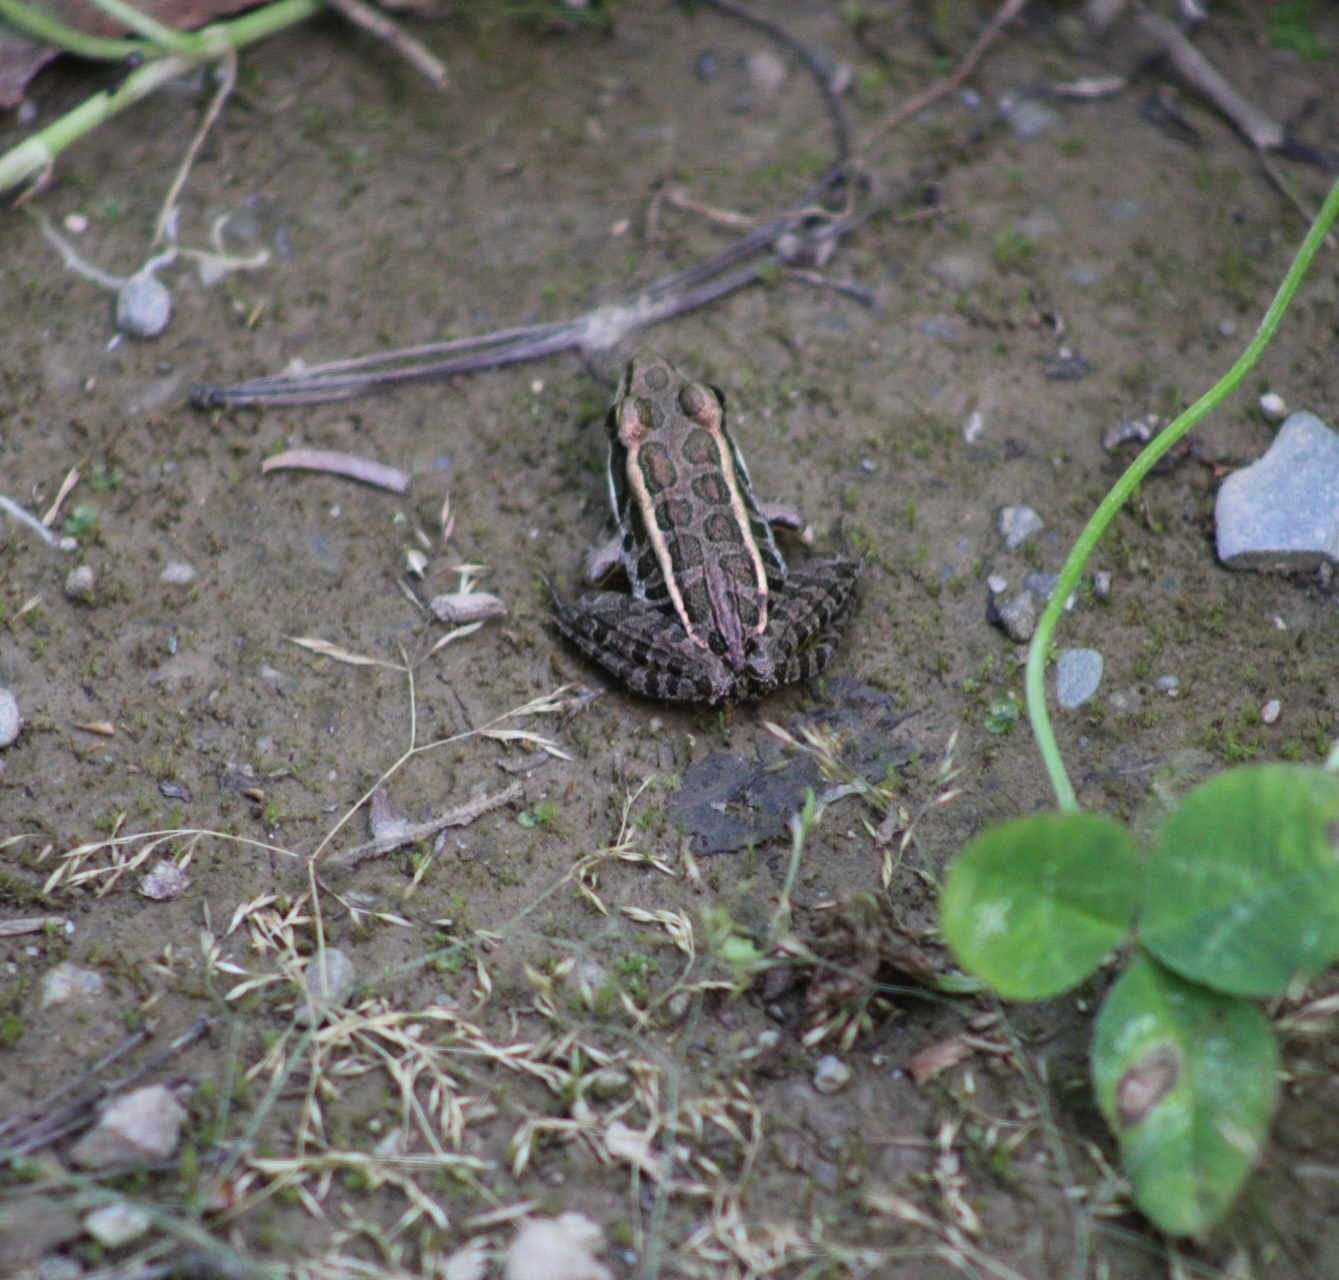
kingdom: Animalia
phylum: Chordata
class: Amphibia
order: Anura
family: Ranidae
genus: Lithobates
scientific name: Lithobates palustris
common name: Pickerel frog
